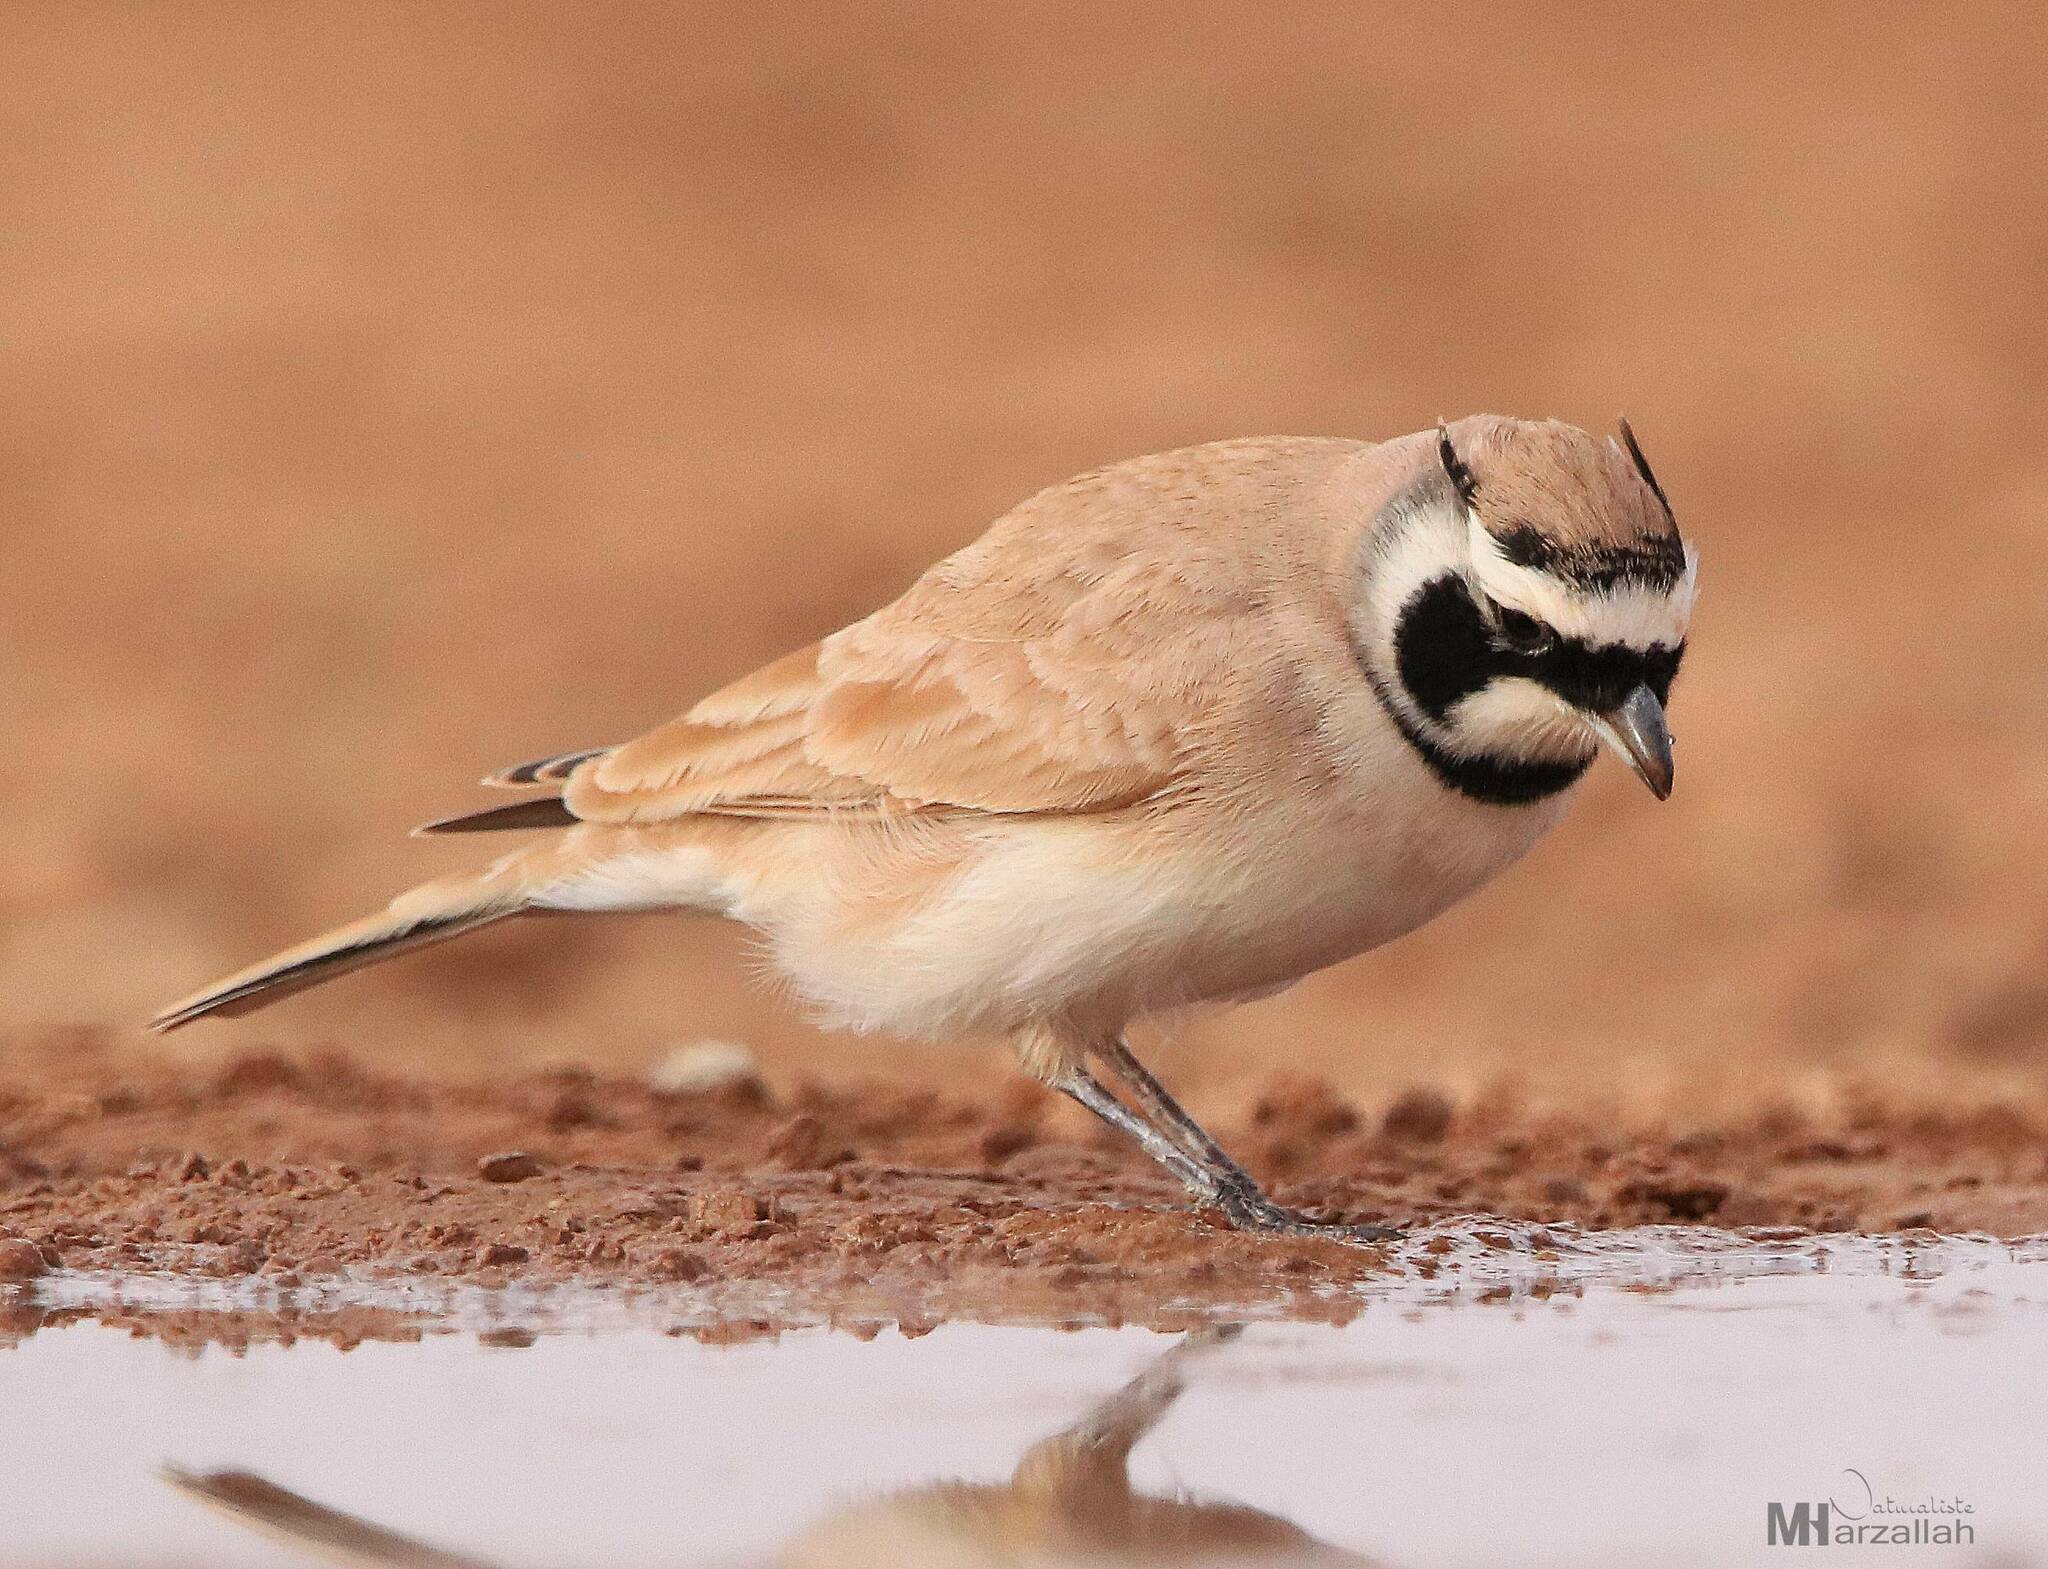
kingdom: Animalia
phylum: Chordata
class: Aves
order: Passeriformes
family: Alaudidae
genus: Eremophila
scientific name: Eremophila bilopha
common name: Temminck's lark
